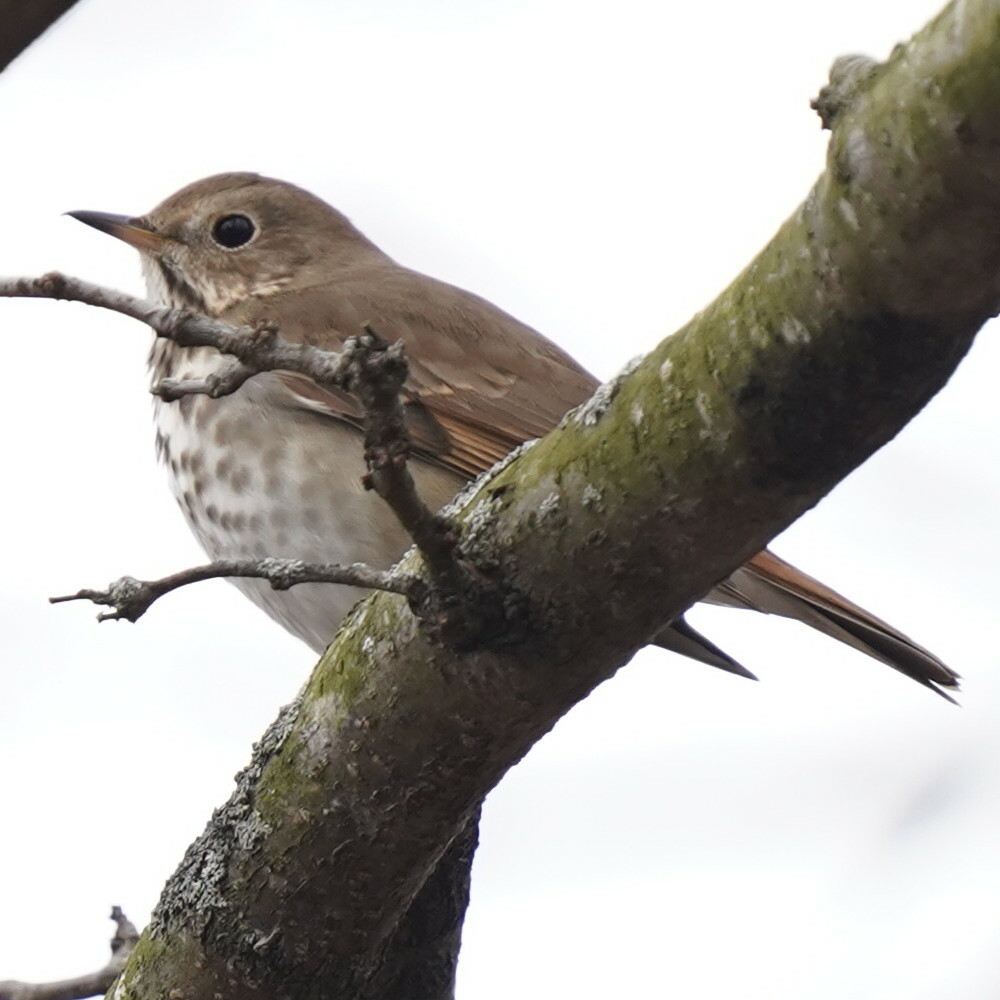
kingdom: Animalia
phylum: Chordata
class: Aves
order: Passeriformes
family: Turdidae
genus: Catharus
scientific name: Catharus guttatus
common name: Hermit thrush
